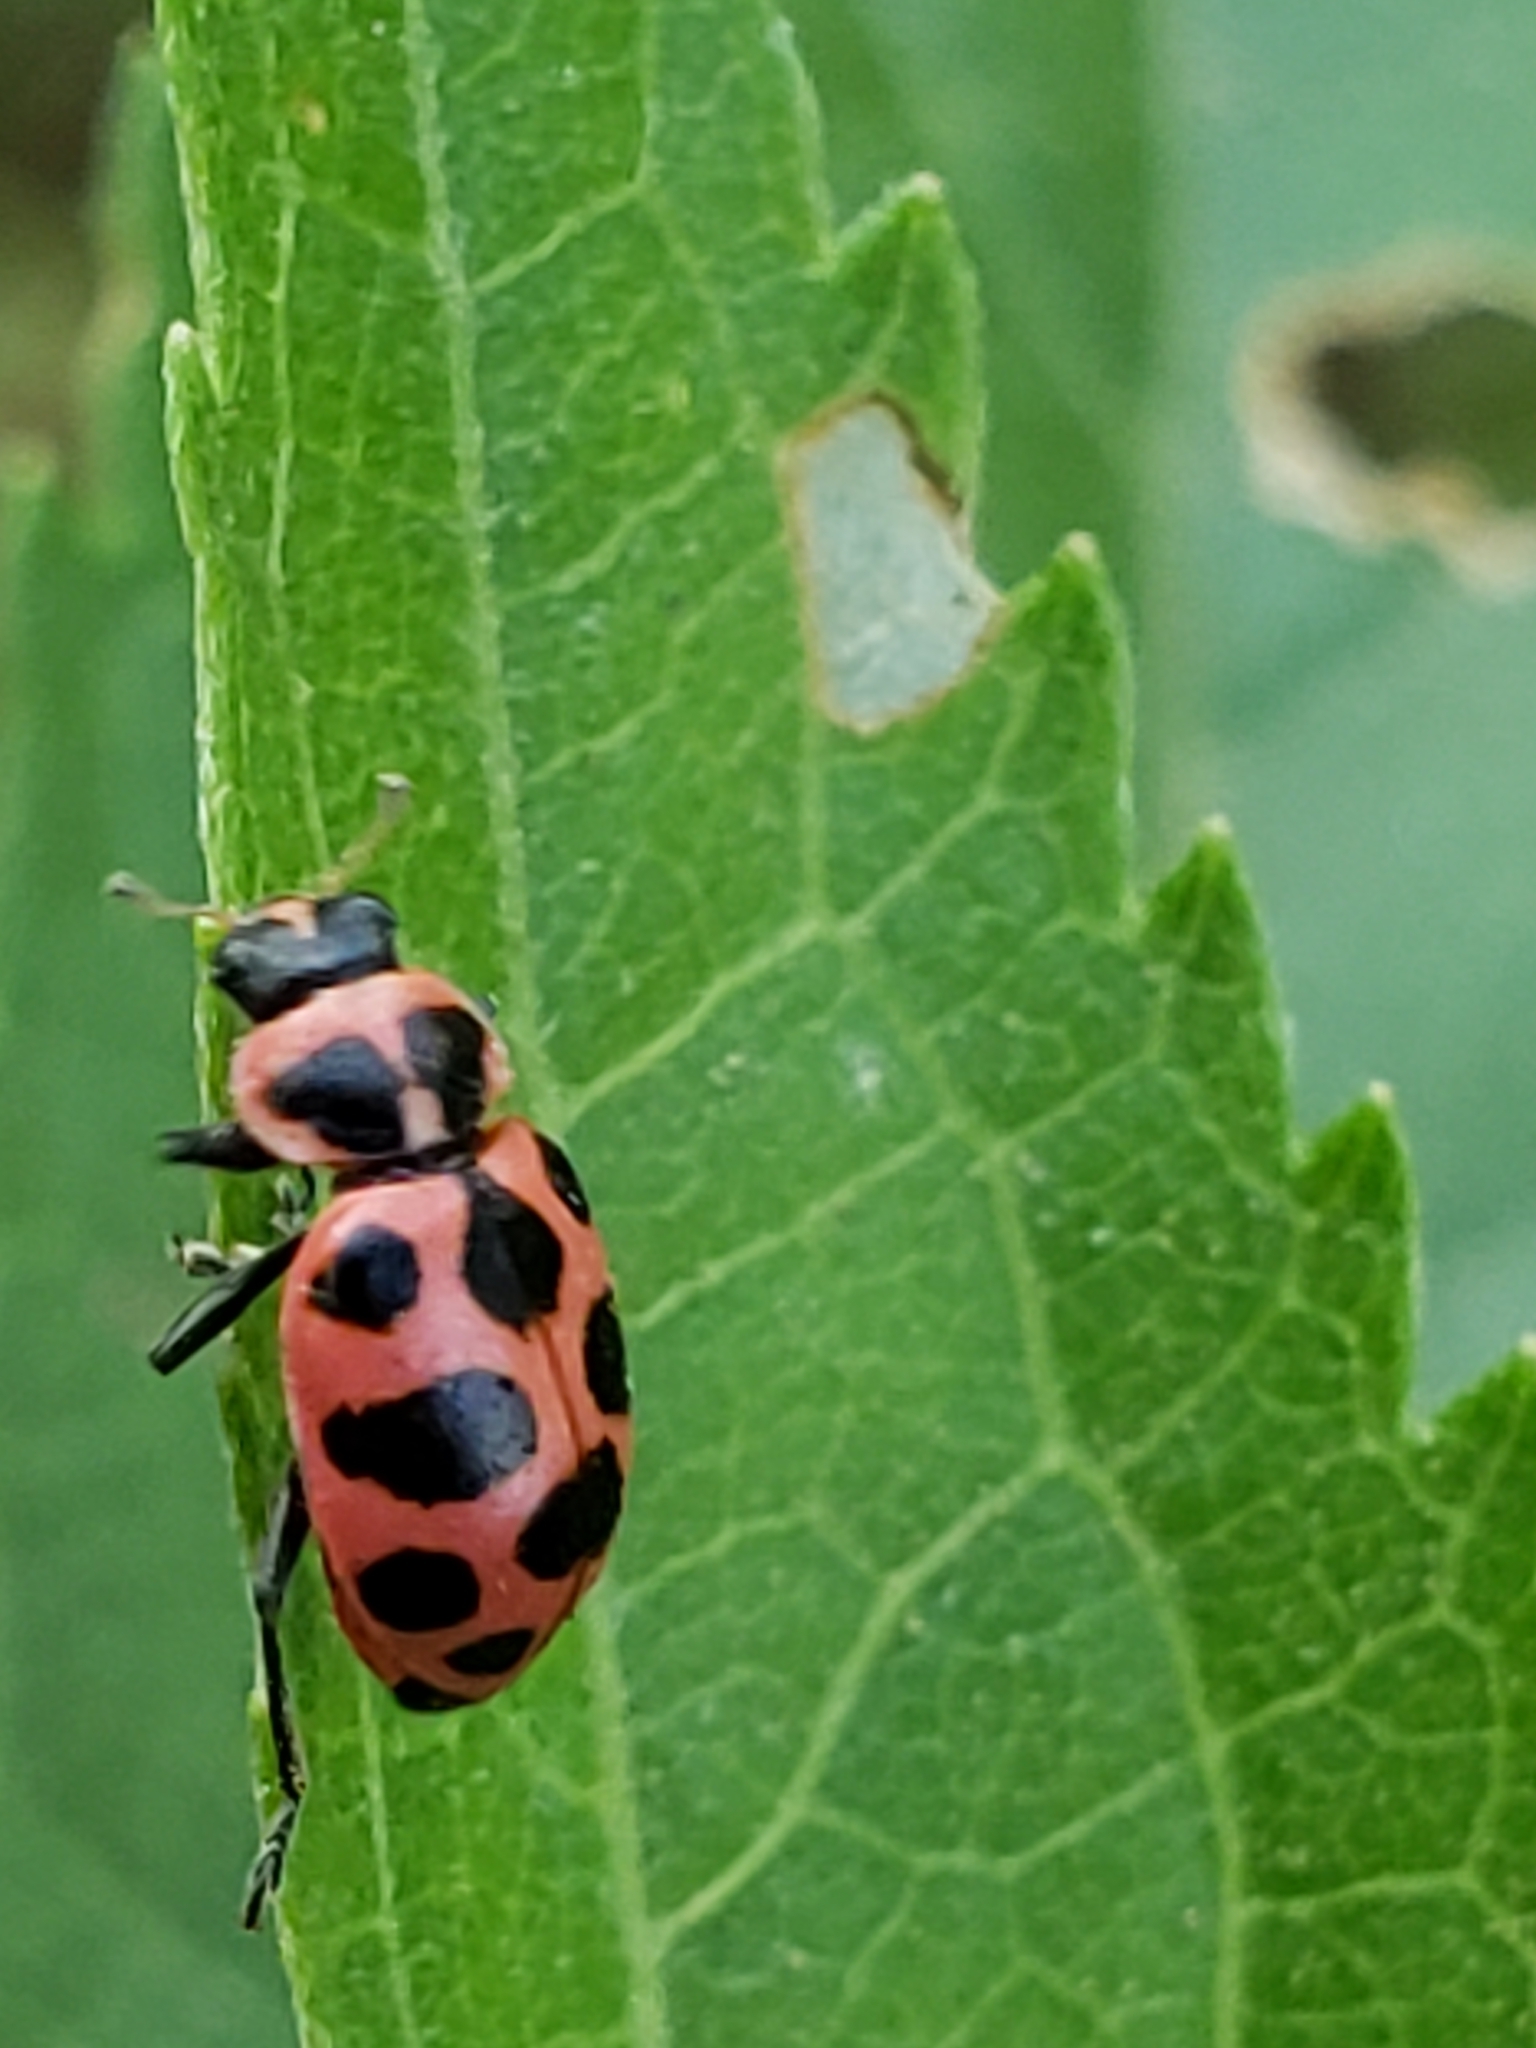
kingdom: Animalia
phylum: Arthropoda
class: Insecta
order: Coleoptera
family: Coccinellidae
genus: Coleomegilla
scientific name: Coleomegilla maculata
